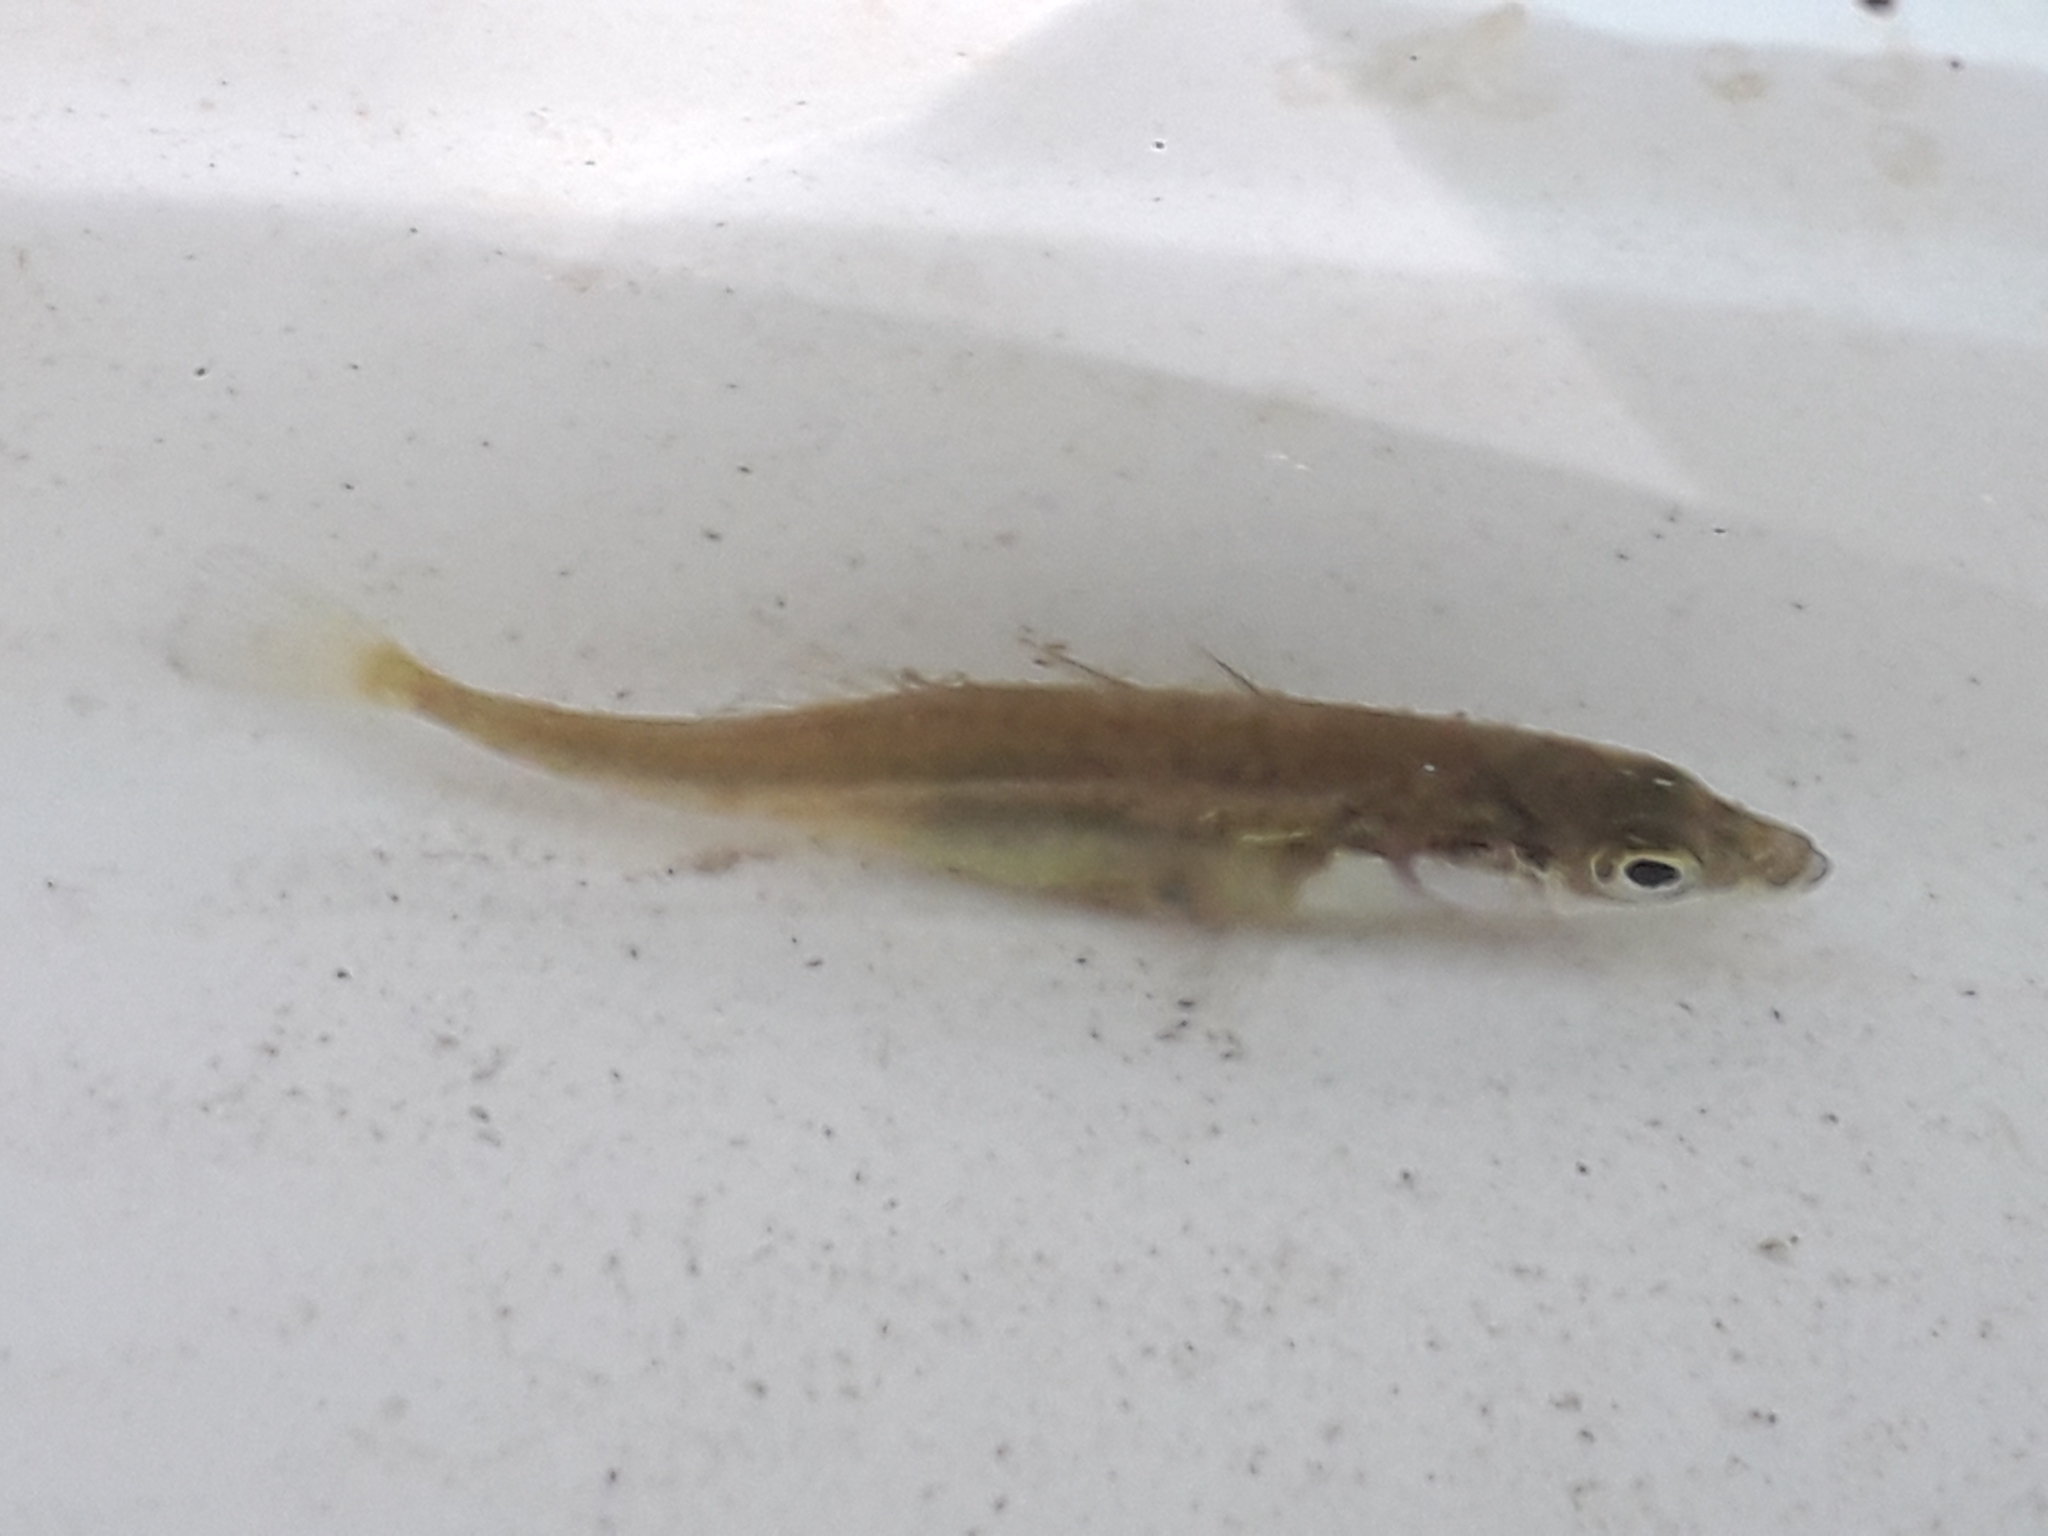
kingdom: Animalia
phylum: Chordata
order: Gasterosteiformes
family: Gasterosteidae
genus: Gasterosteus
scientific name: Gasterosteus aculeatus
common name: Three-spined stickleback
